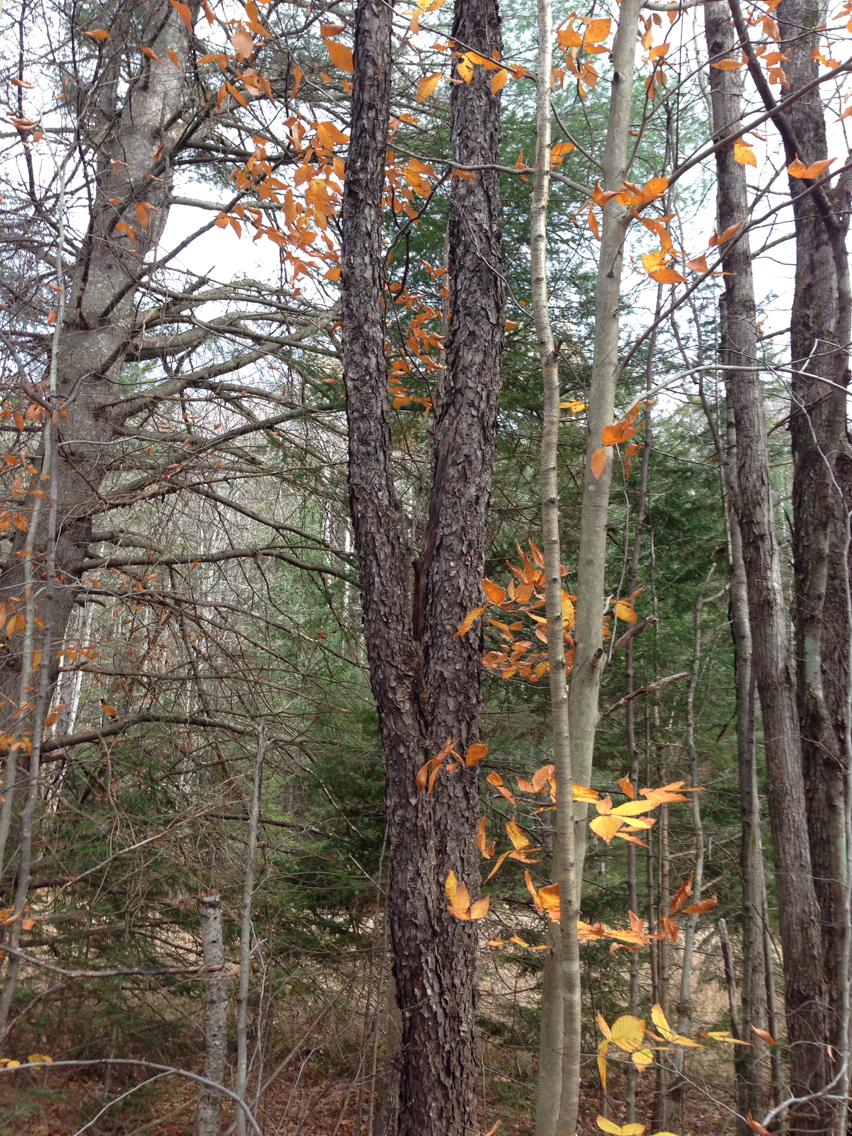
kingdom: Plantae
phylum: Tracheophyta
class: Magnoliopsida
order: Rosales
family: Rosaceae
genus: Prunus
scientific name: Prunus serotina
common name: Black cherry
